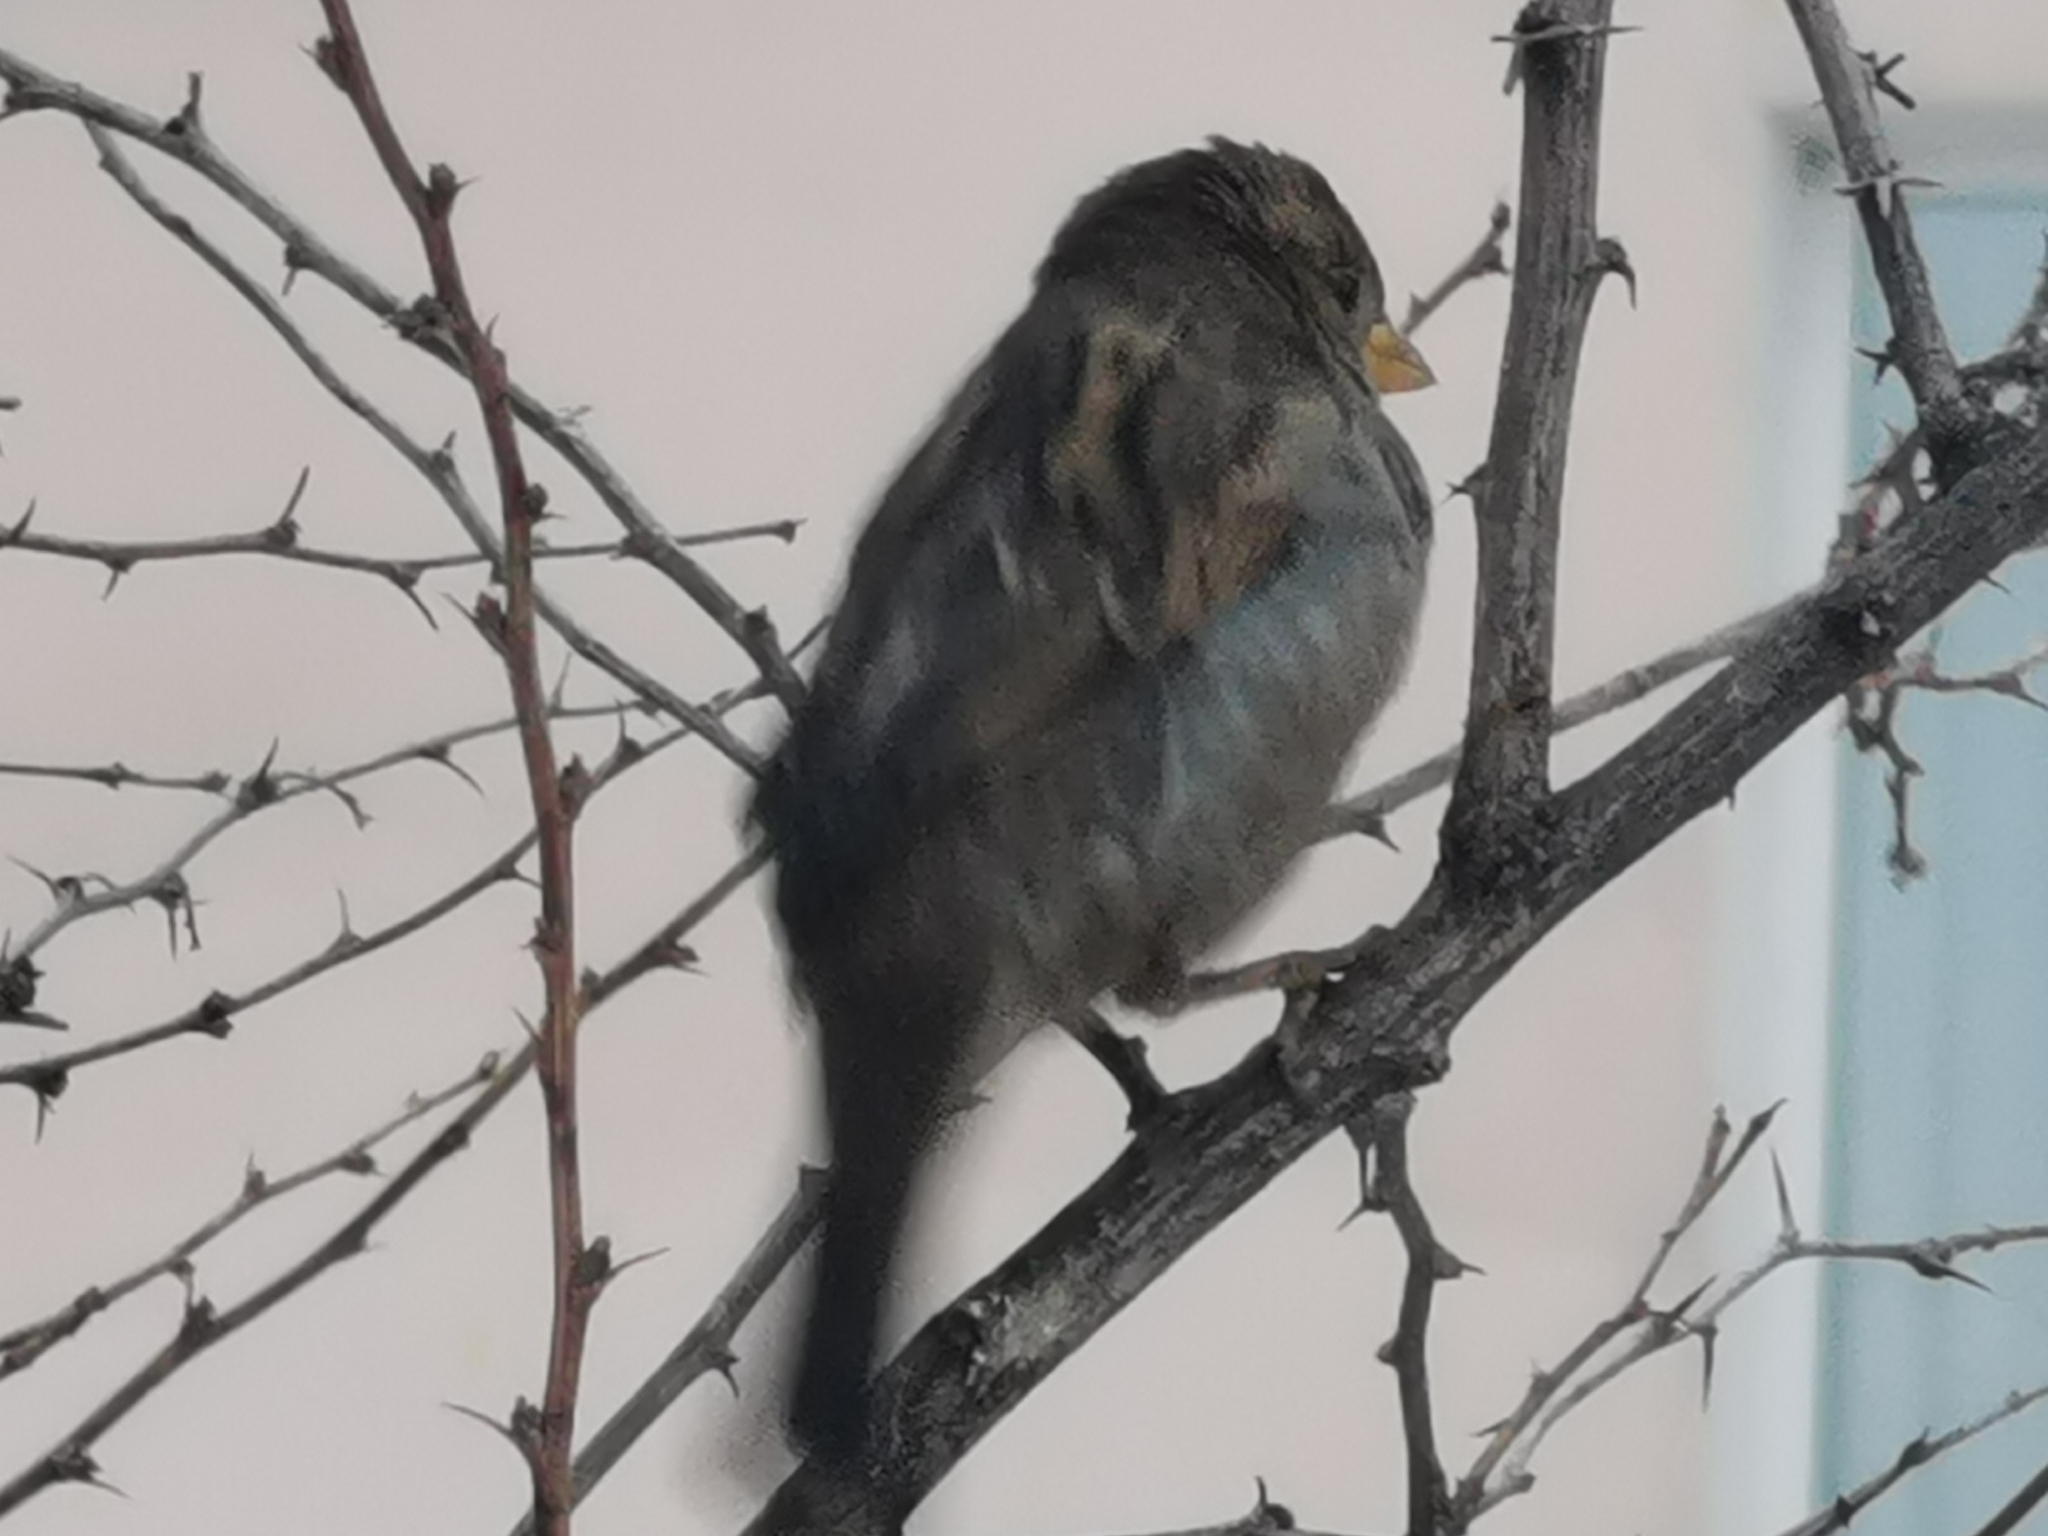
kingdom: Animalia
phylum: Chordata
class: Aves
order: Passeriformes
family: Passeridae
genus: Passer
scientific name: Passer domesticus
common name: House sparrow
